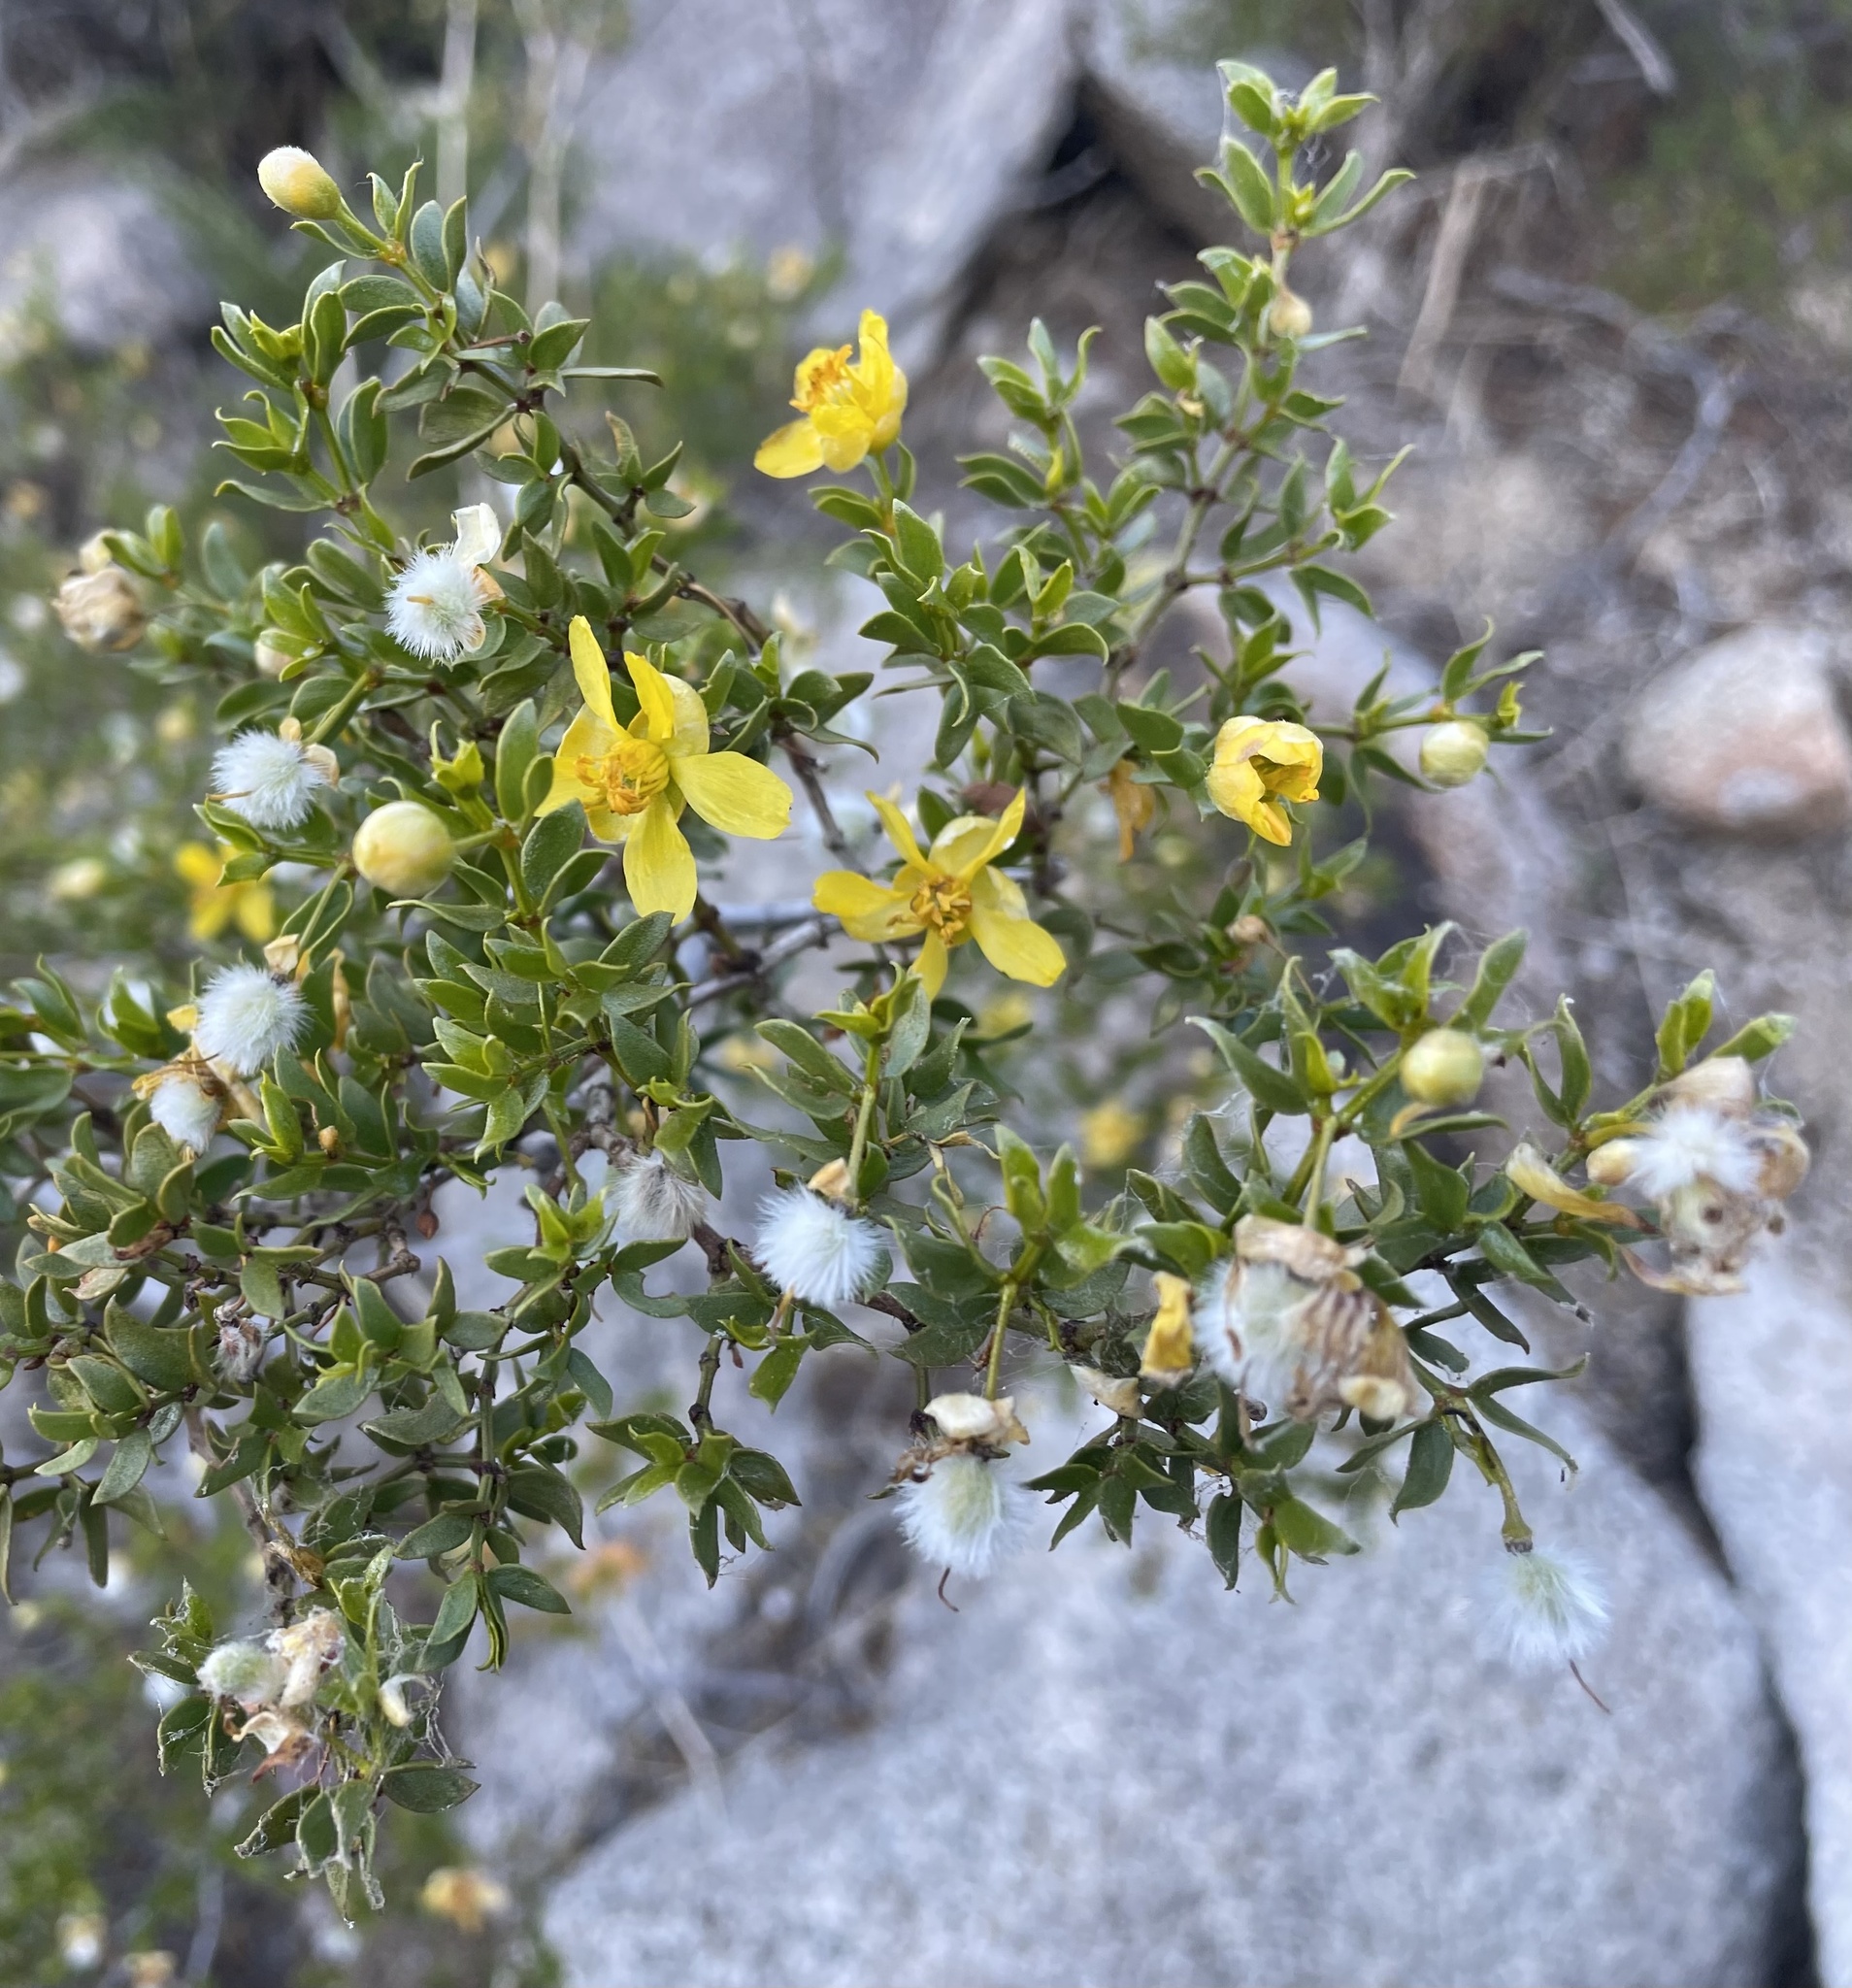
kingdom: Plantae
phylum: Tracheophyta
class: Magnoliopsida
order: Zygophyllales
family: Zygophyllaceae
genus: Larrea
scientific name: Larrea tridentata
